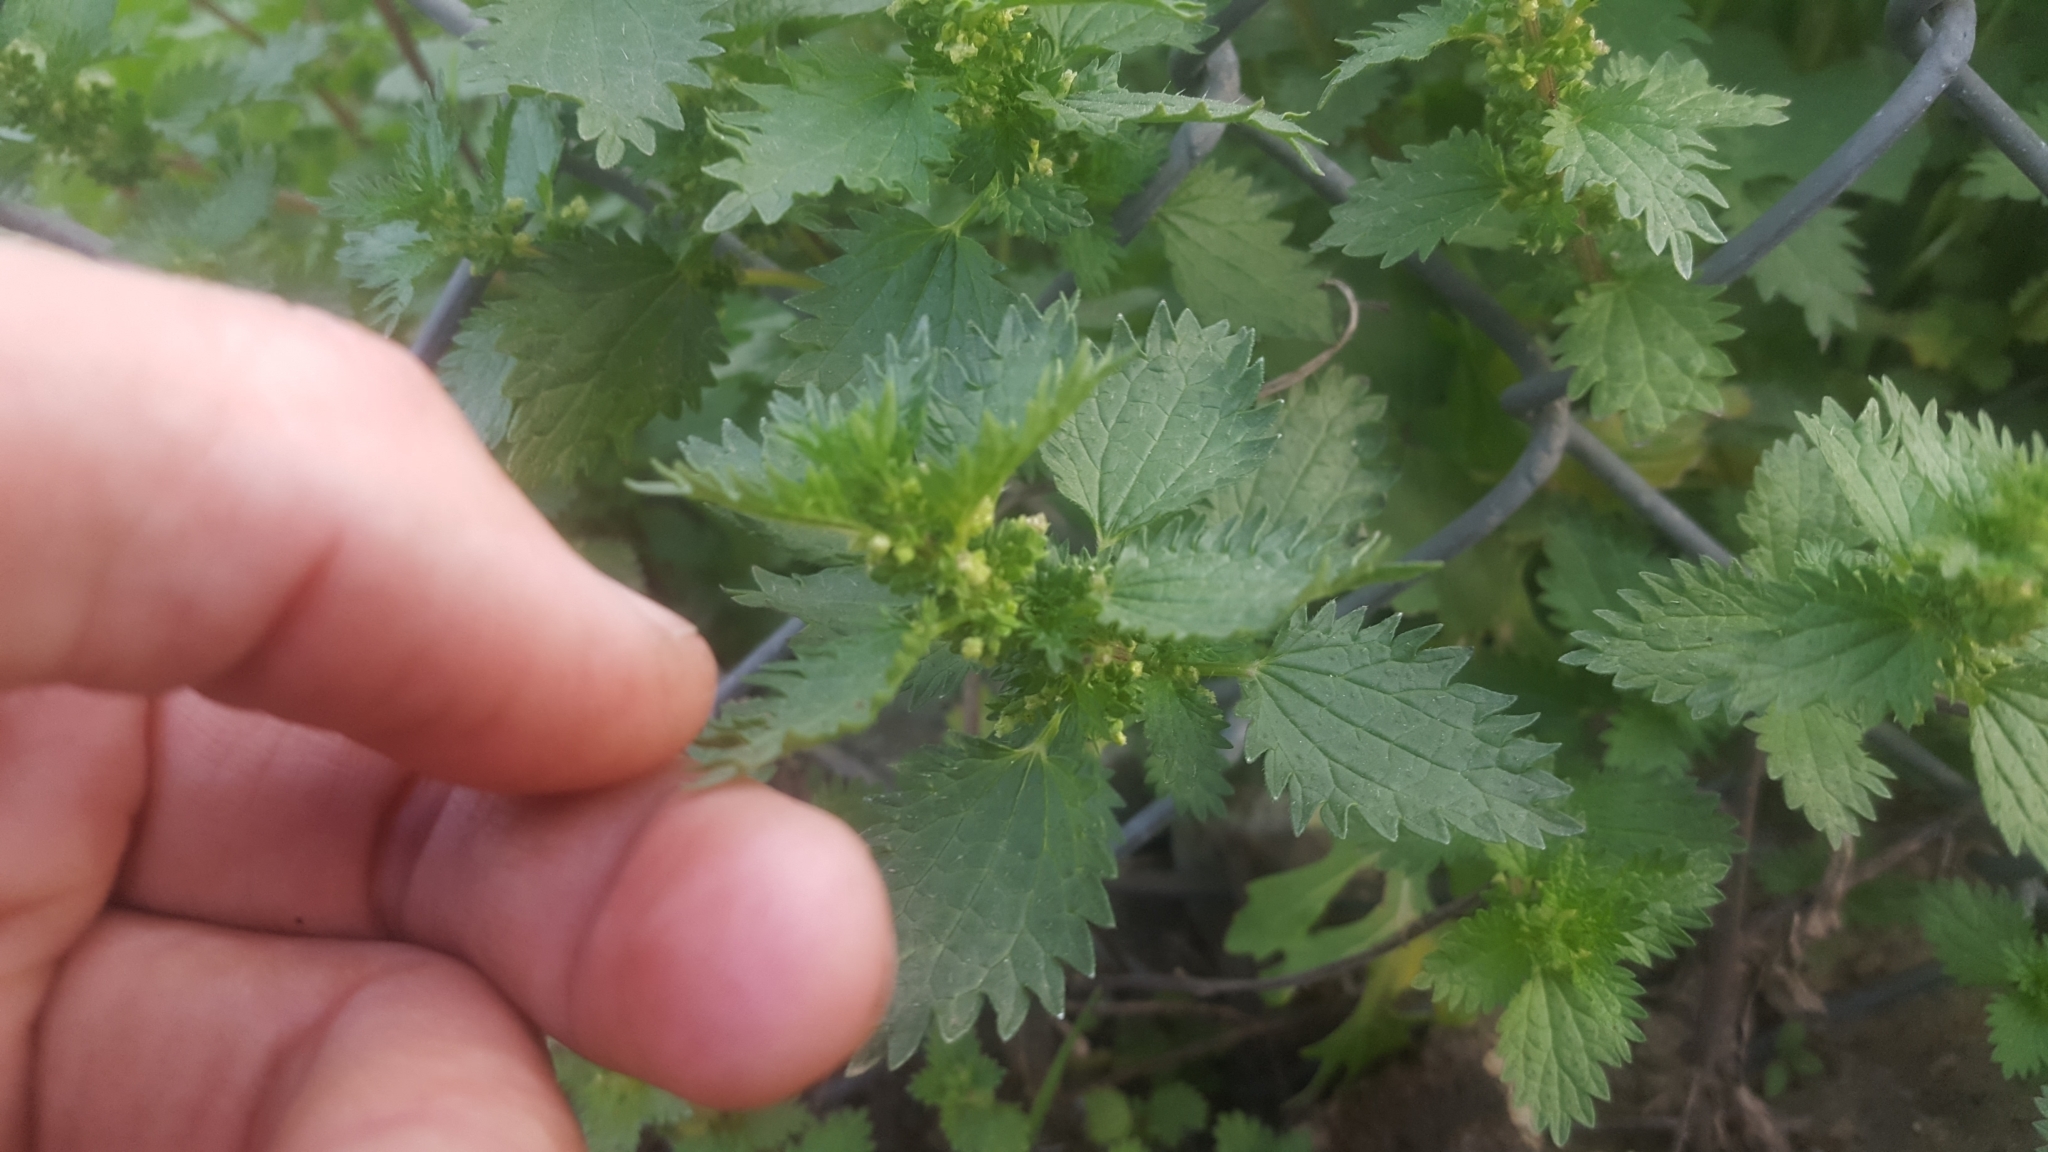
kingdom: Plantae
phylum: Tracheophyta
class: Magnoliopsida
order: Rosales
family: Urticaceae
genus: Urtica
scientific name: Urtica urens
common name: Dwarf nettle
